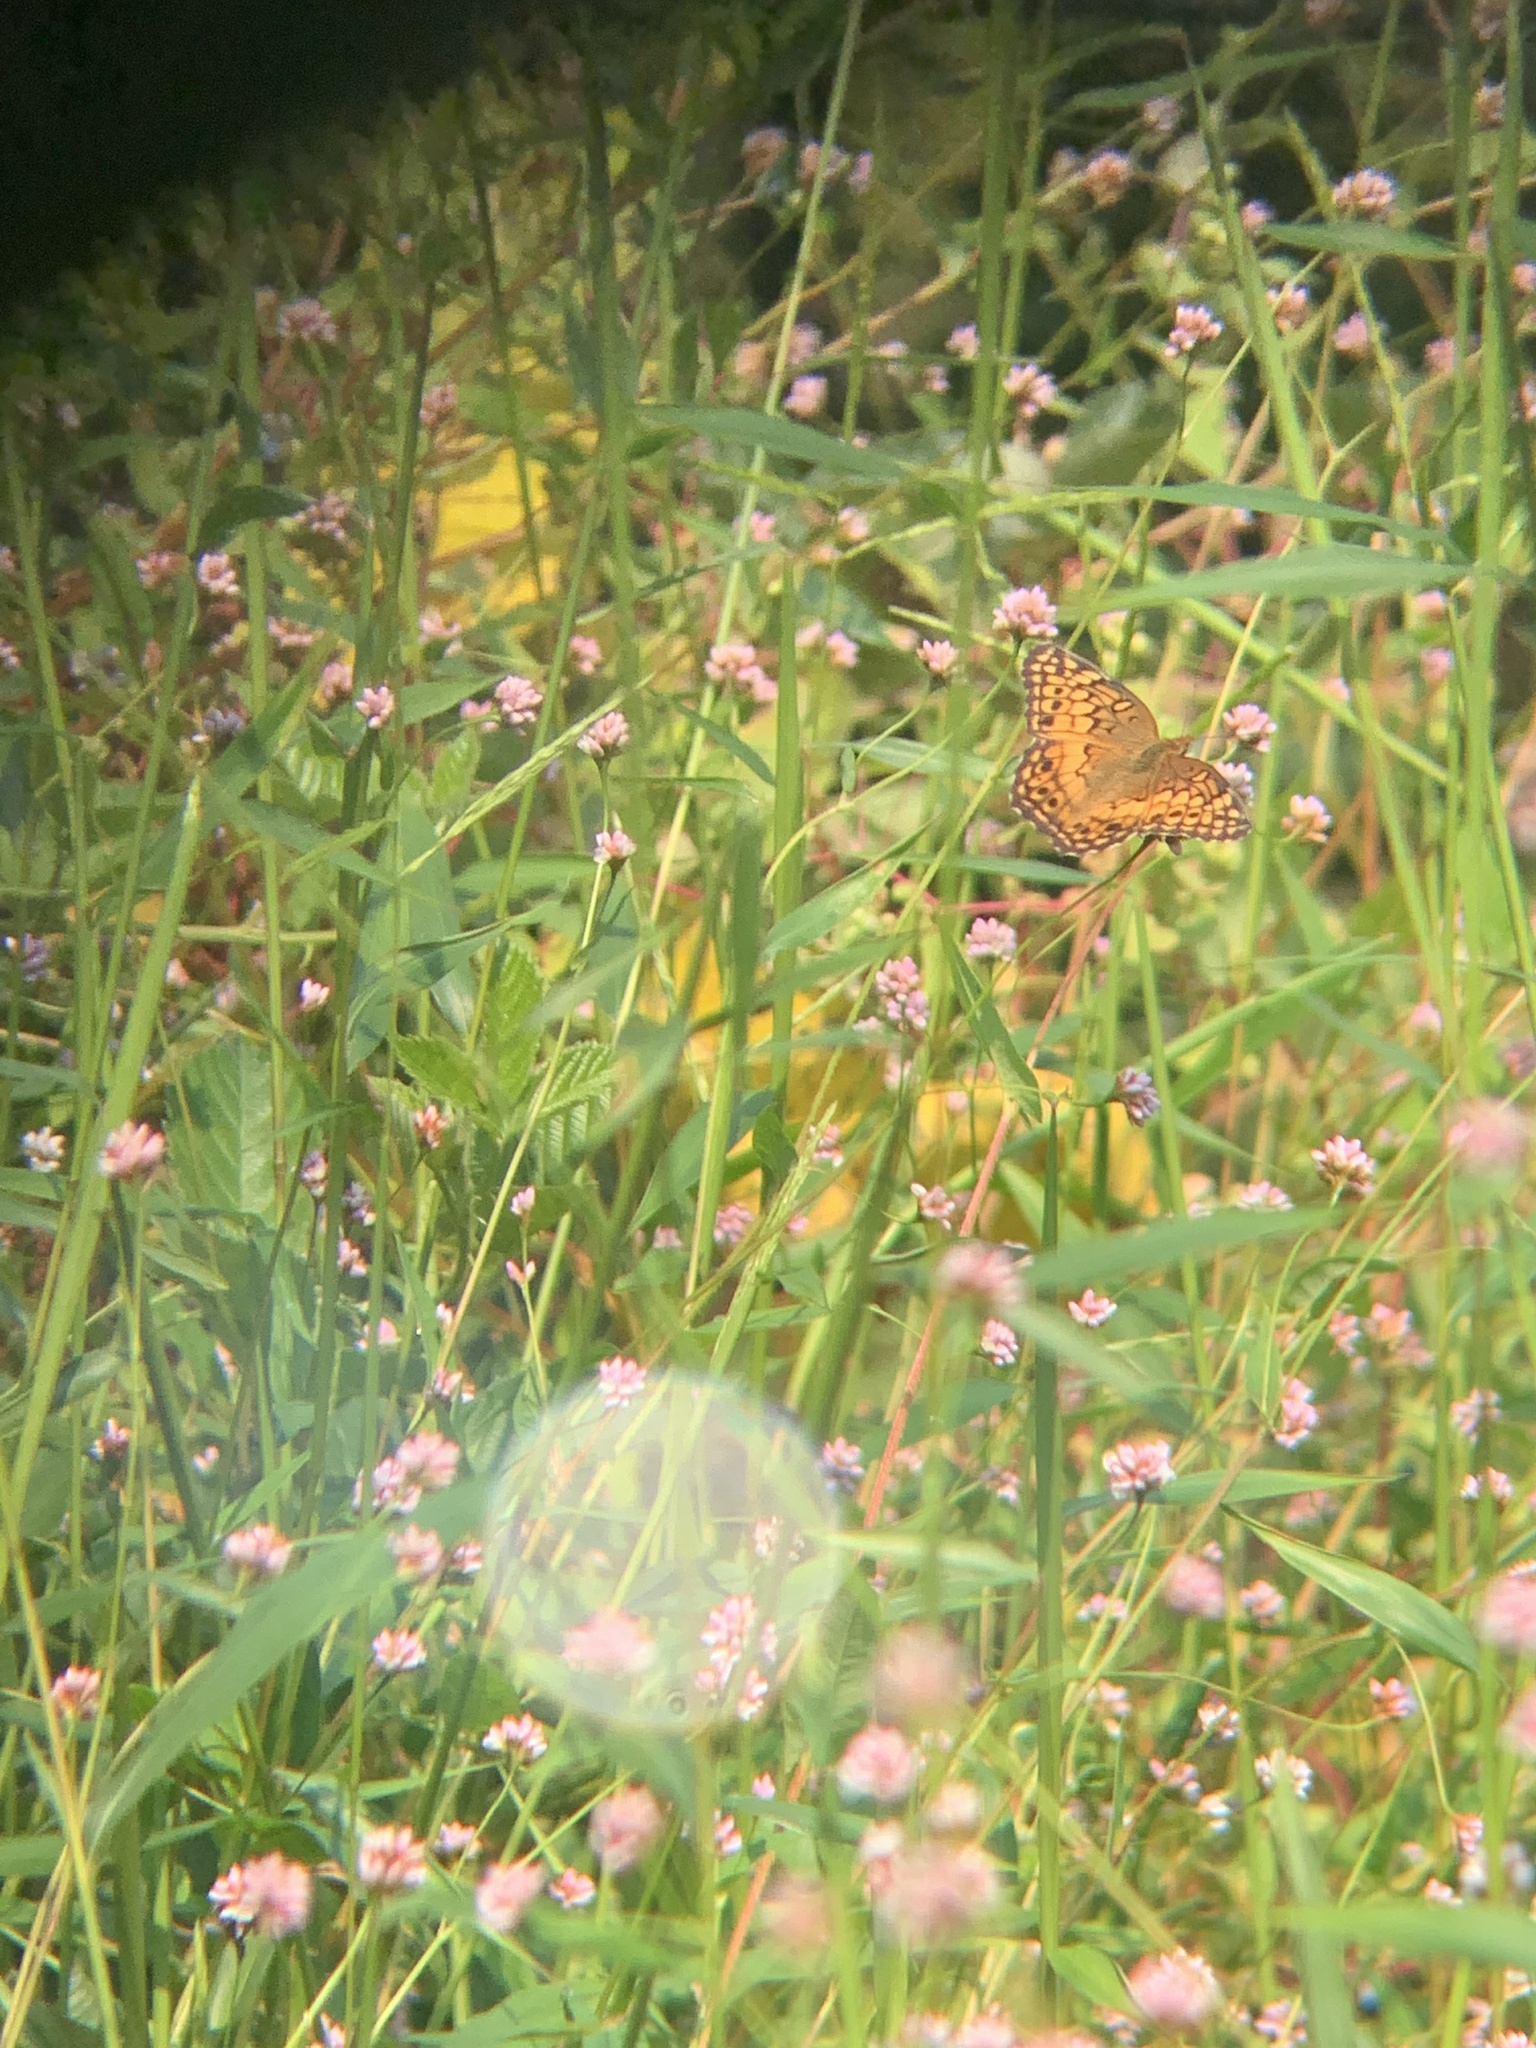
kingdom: Animalia
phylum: Arthropoda
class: Insecta
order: Lepidoptera
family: Nymphalidae
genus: Euptoieta
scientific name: Euptoieta claudia
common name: Variegated fritillary
